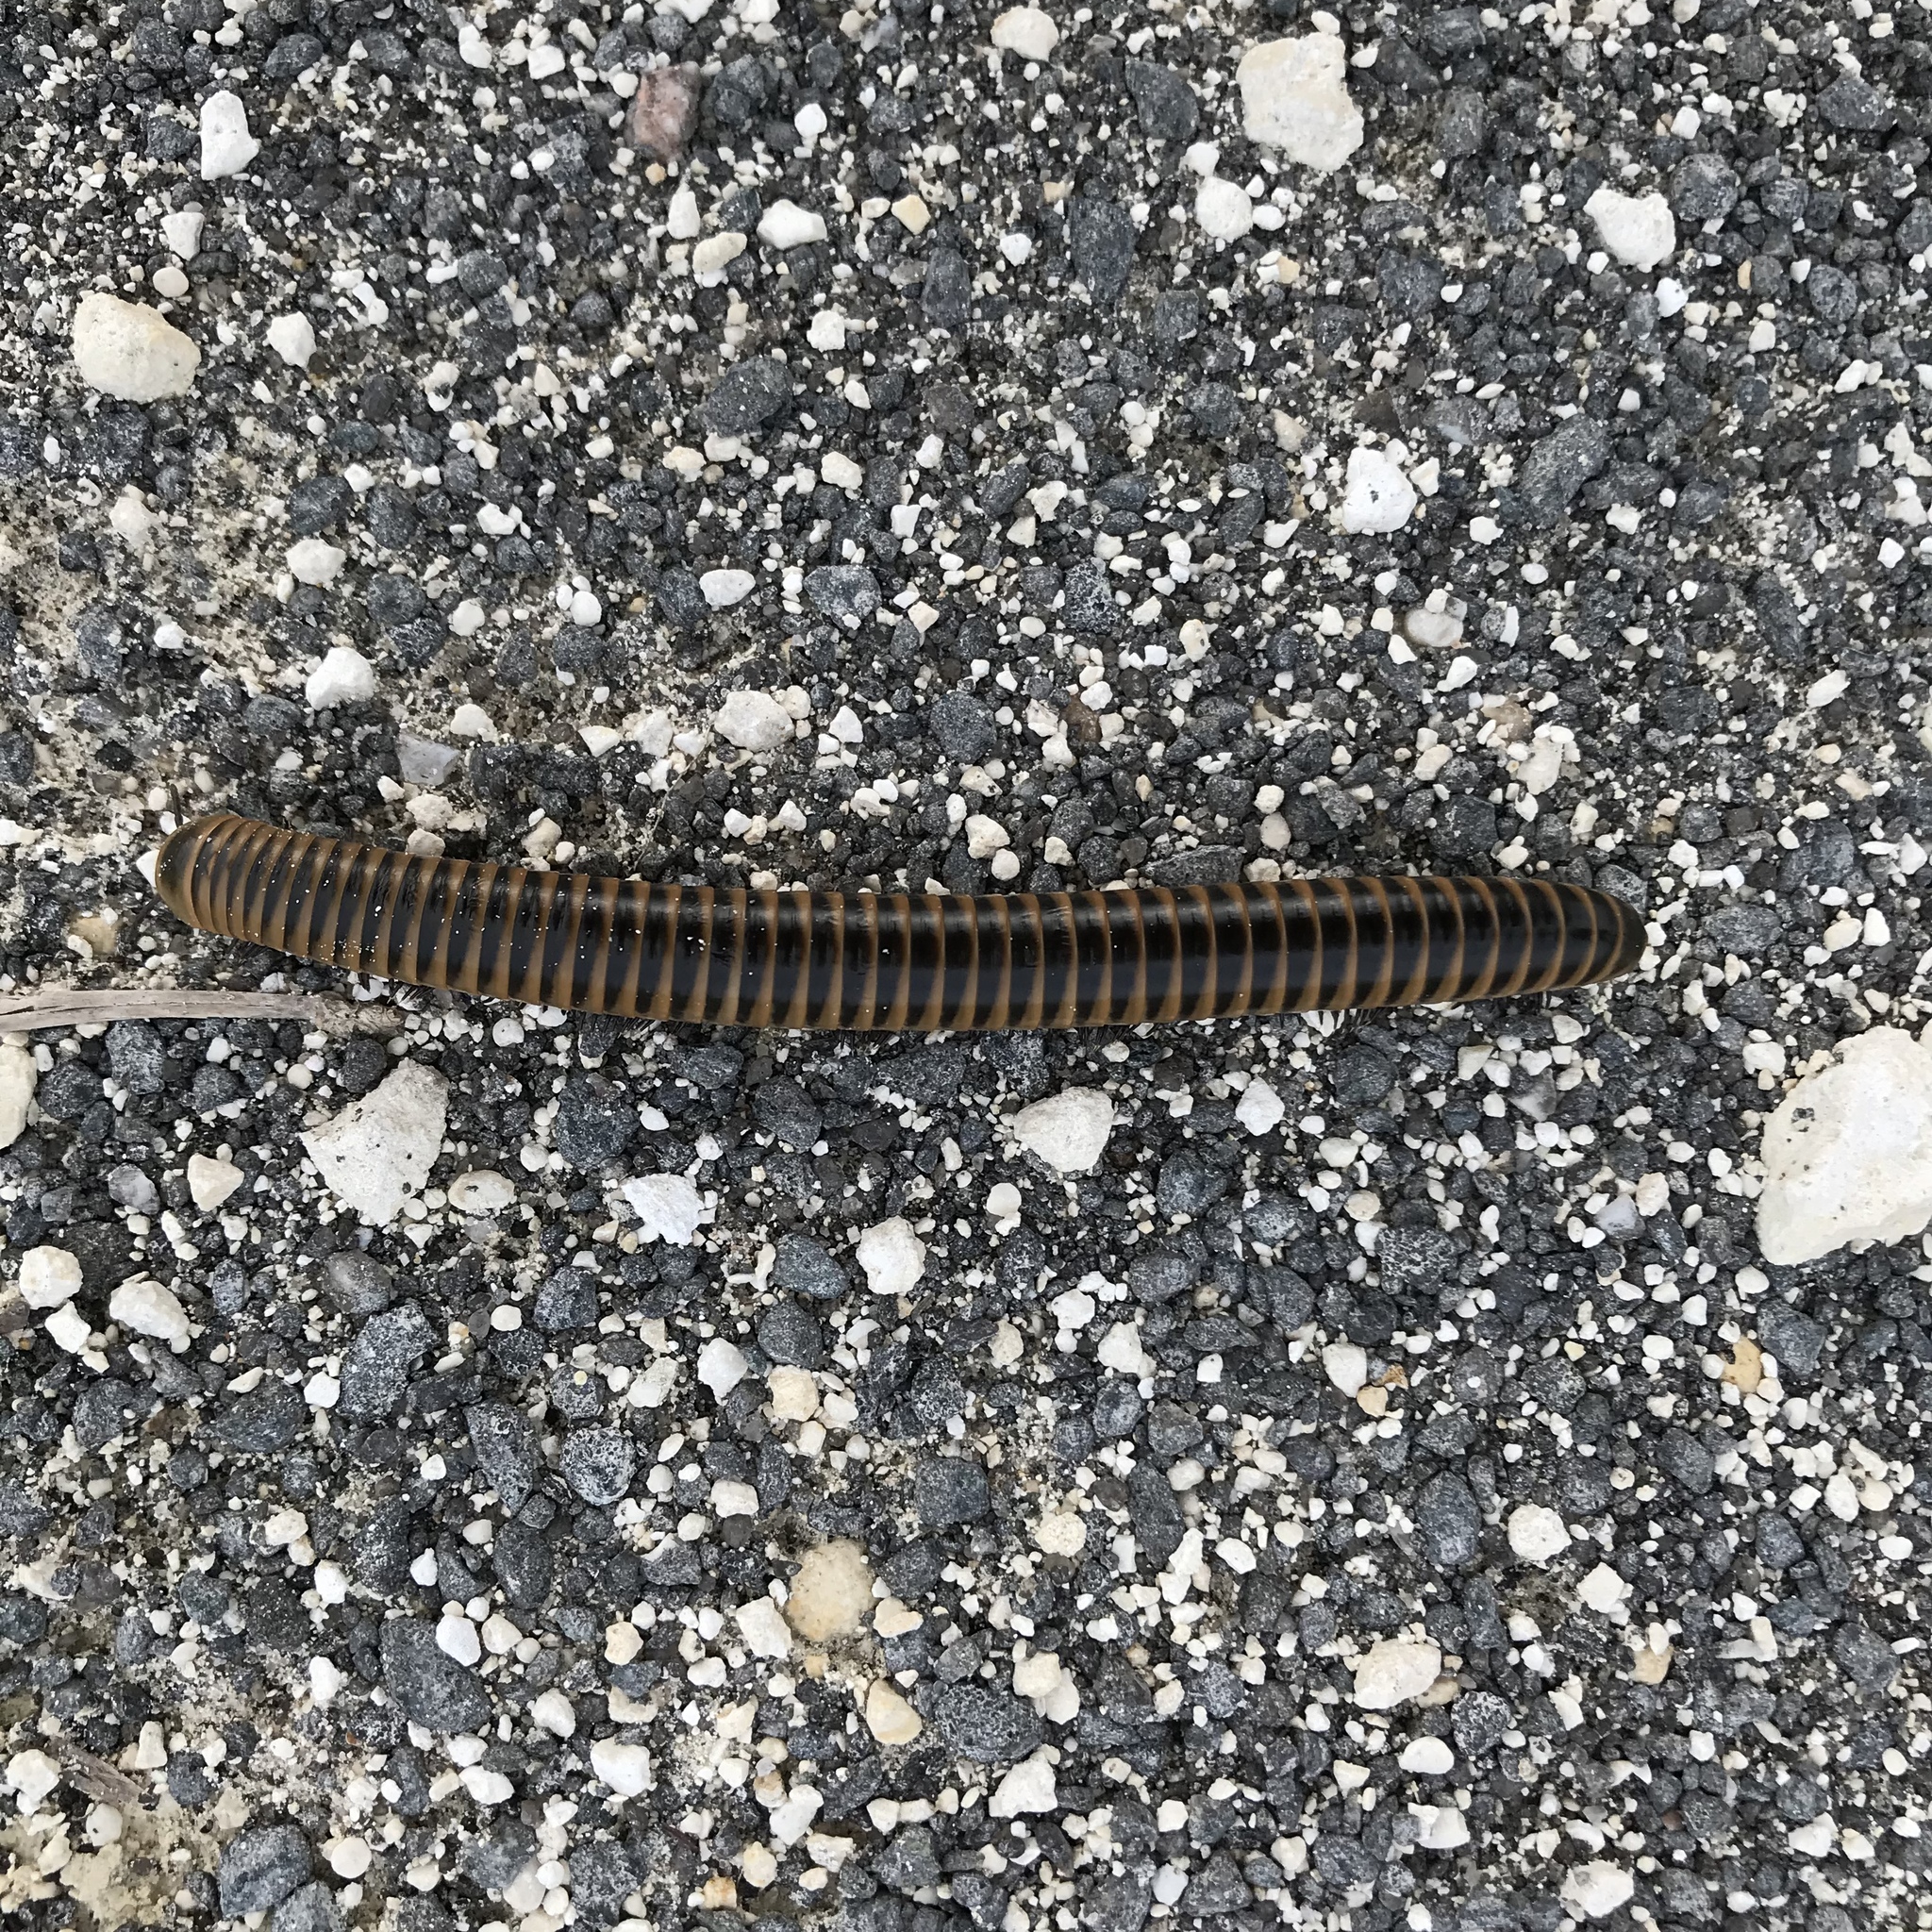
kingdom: Animalia
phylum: Arthropoda
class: Diplopoda
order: Spirobolida
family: Spirobolidae
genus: Chicobolus
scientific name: Chicobolus spinigerus
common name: Florida ivory millipede
